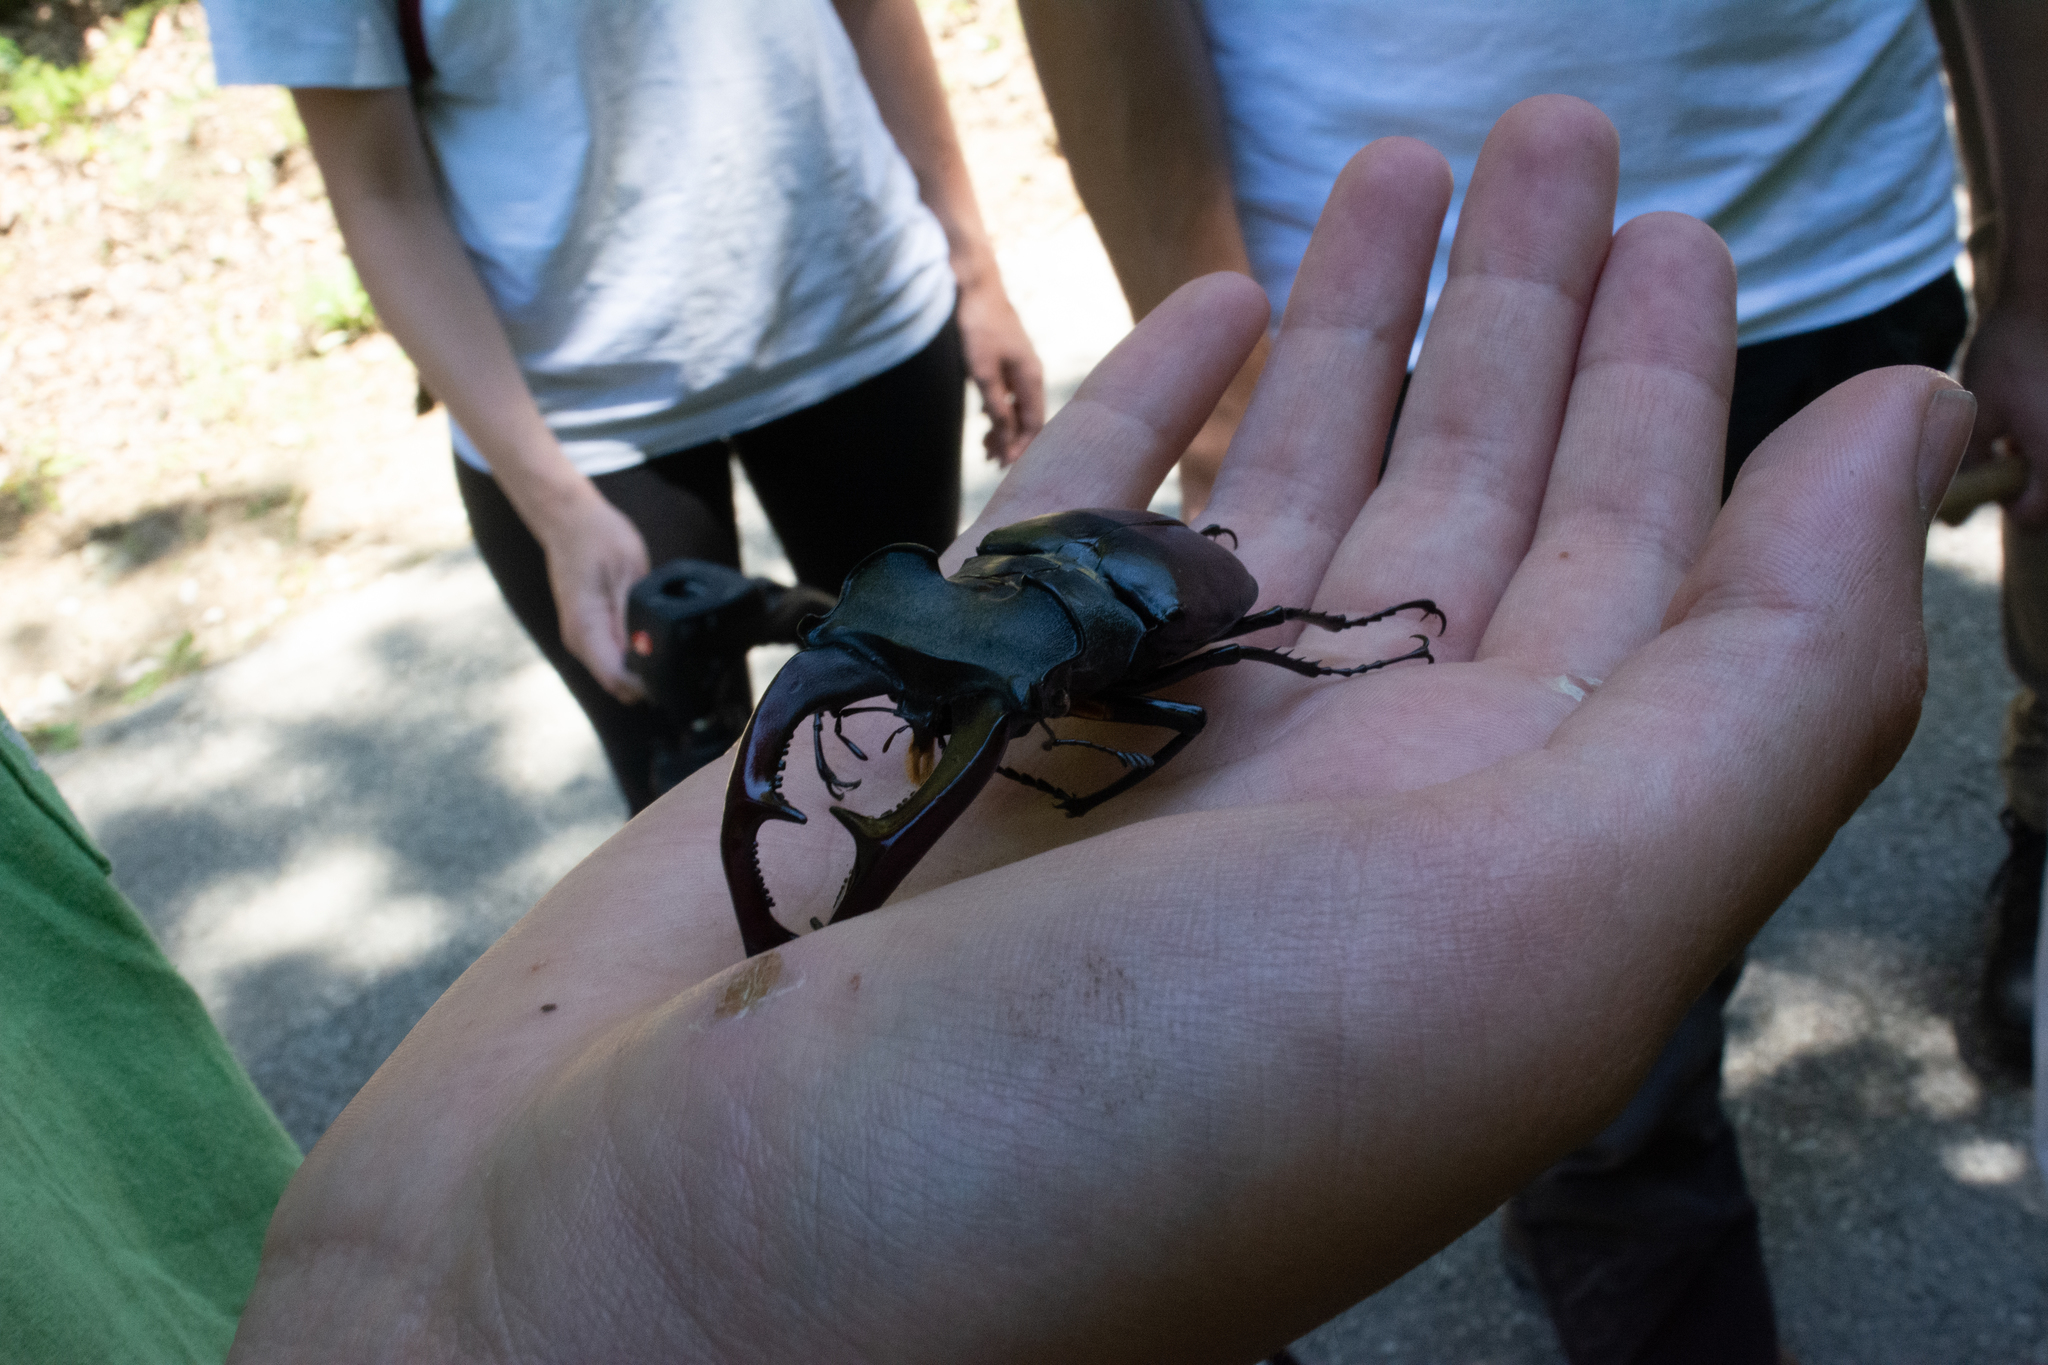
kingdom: Animalia
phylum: Arthropoda
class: Insecta
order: Coleoptera
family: Lucanidae
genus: Lucanus
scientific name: Lucanus cervus
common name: Stag beetle
